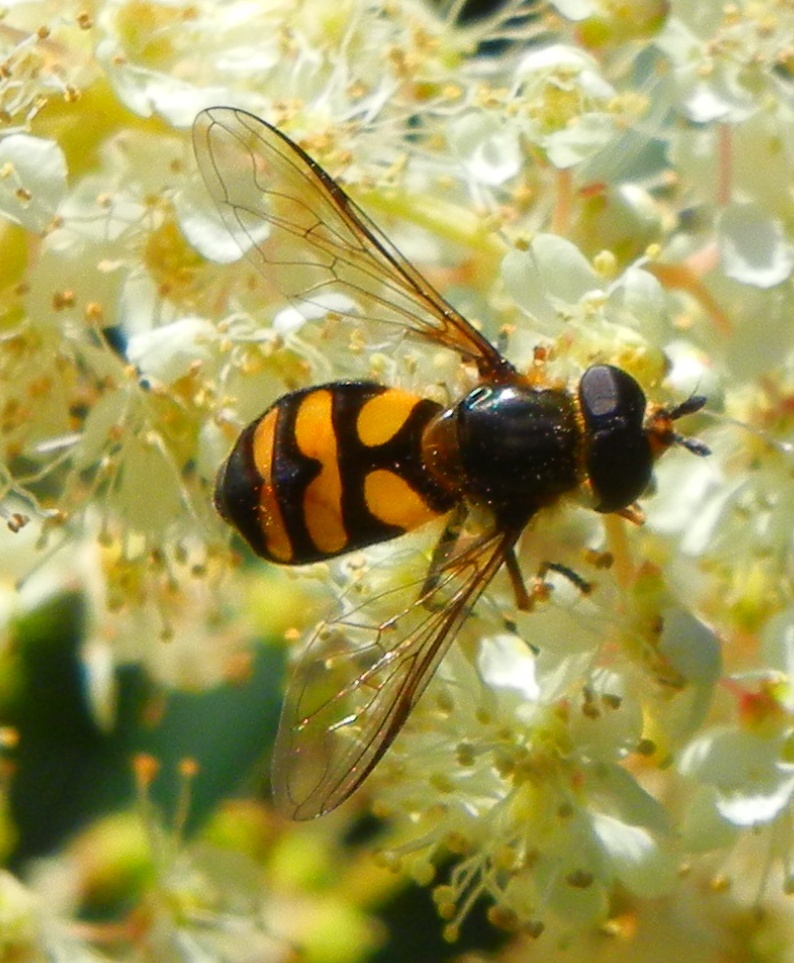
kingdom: Animalia
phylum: Arthropoda
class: Insecta
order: Diptera
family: Syrphidae
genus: Didea
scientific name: Didea fasciata
